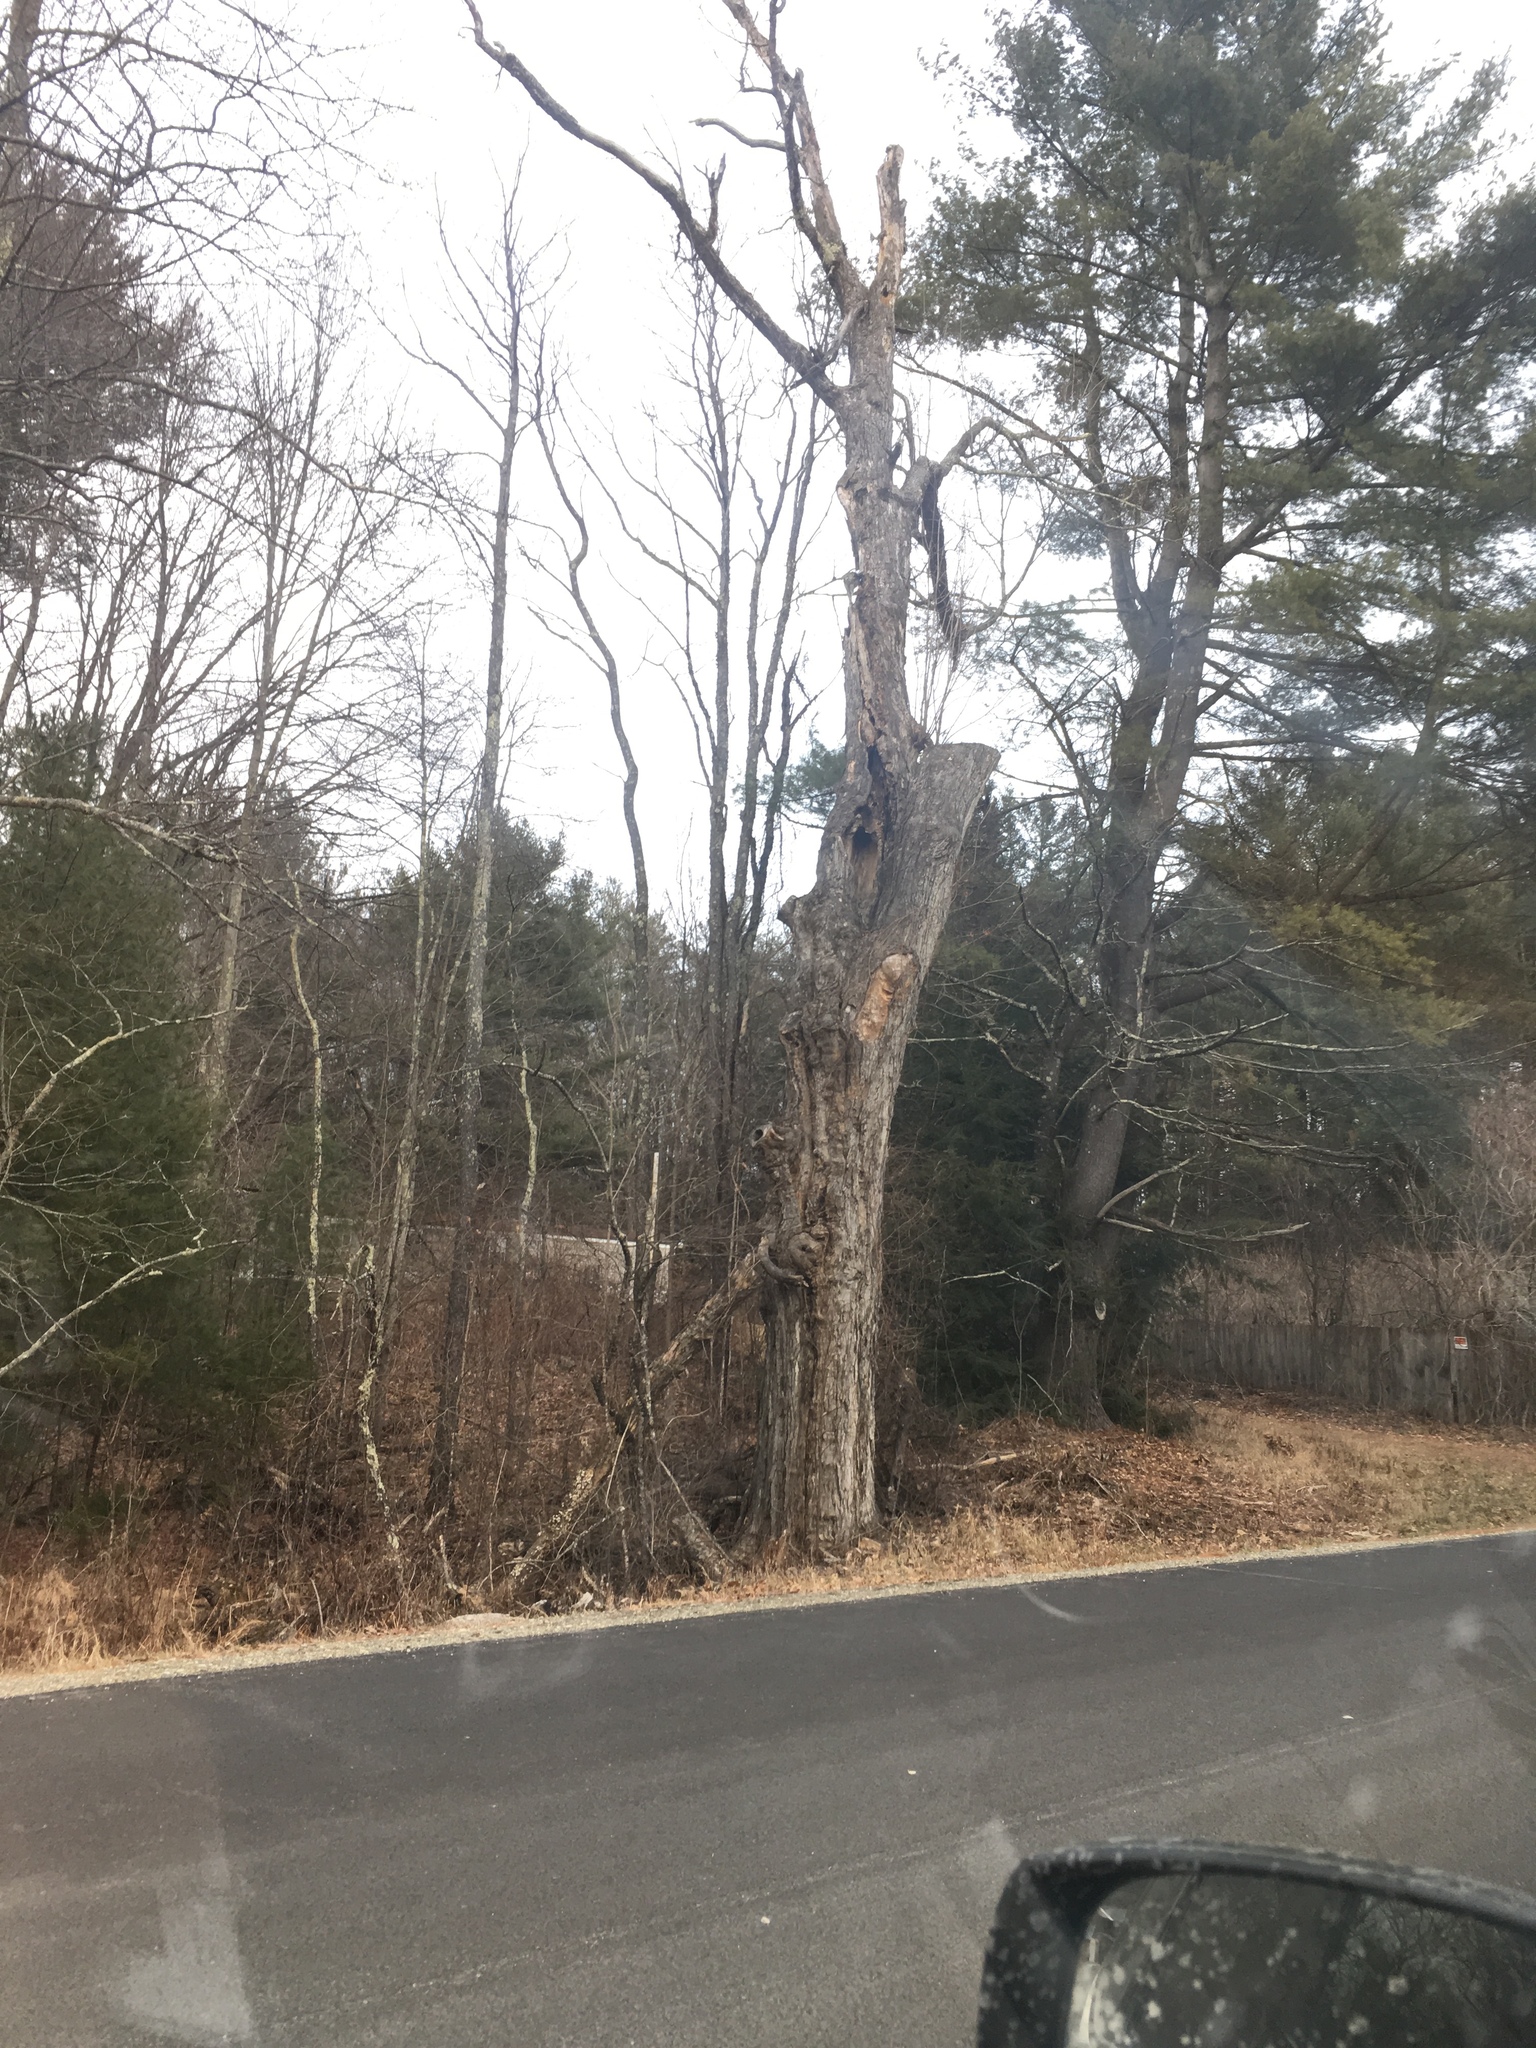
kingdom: Plantae
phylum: Tracheophyta
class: Magnoliopsida
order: Sapindales
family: Sapindaceae
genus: Acer
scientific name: Acer saccharum
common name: Sugar maple
